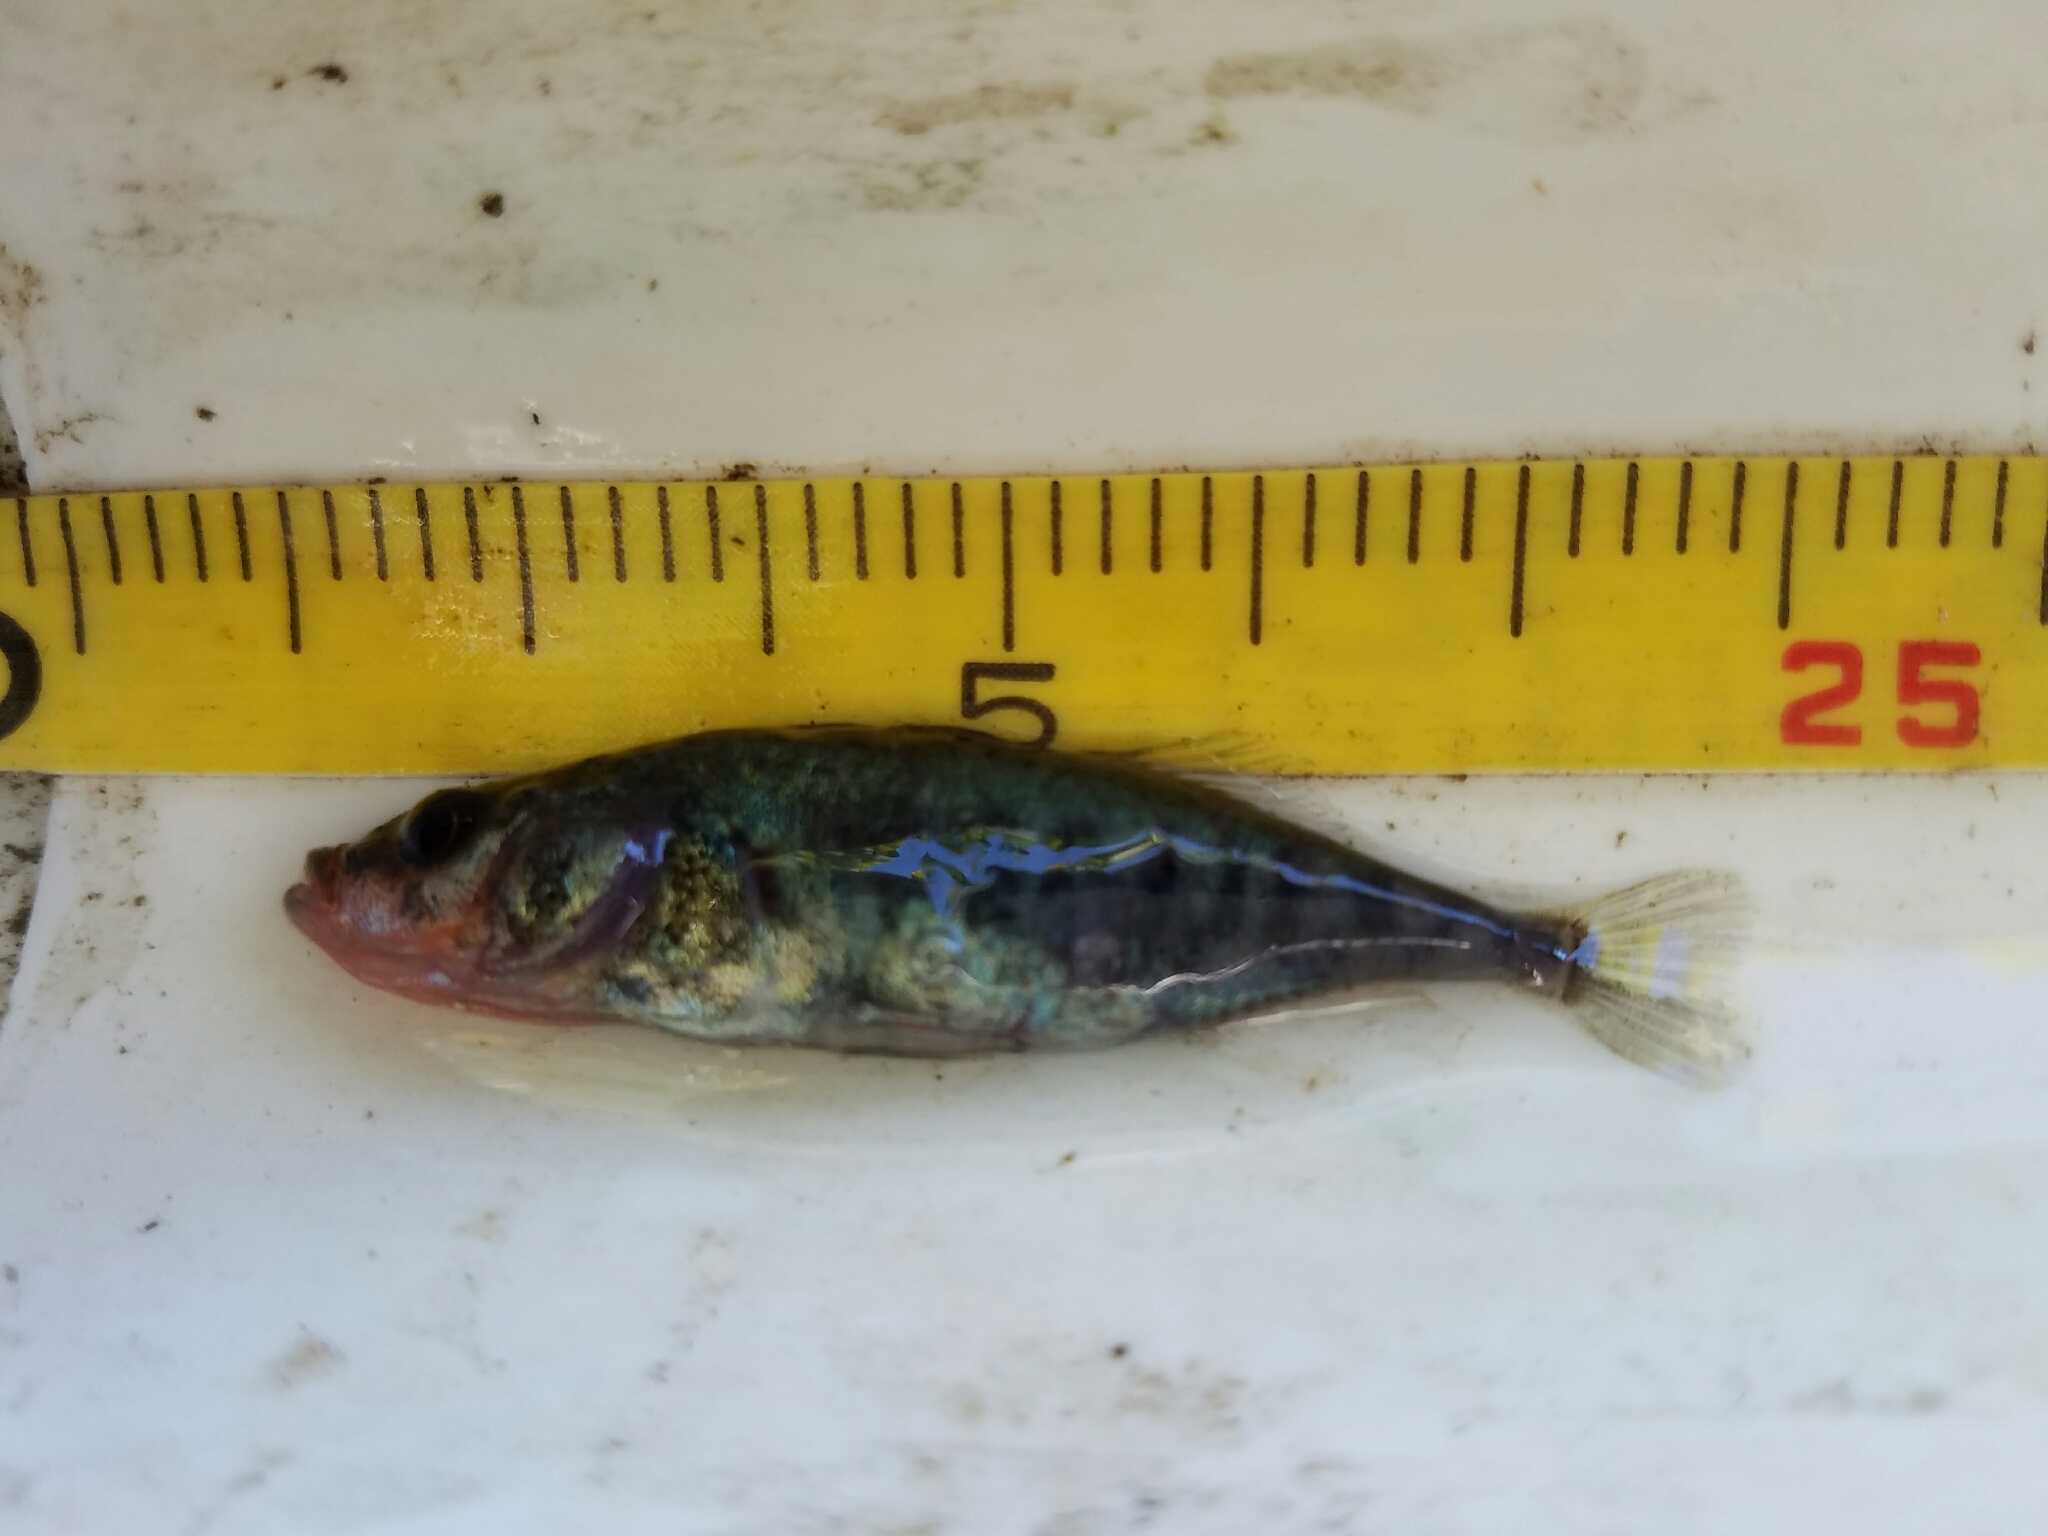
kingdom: Animalia
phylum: Chordata
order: Gasterosteiformes
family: Gasterosteidae
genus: Gasterosteus
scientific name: Gasterosteus aculeatus
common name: Three-spined stickleback
